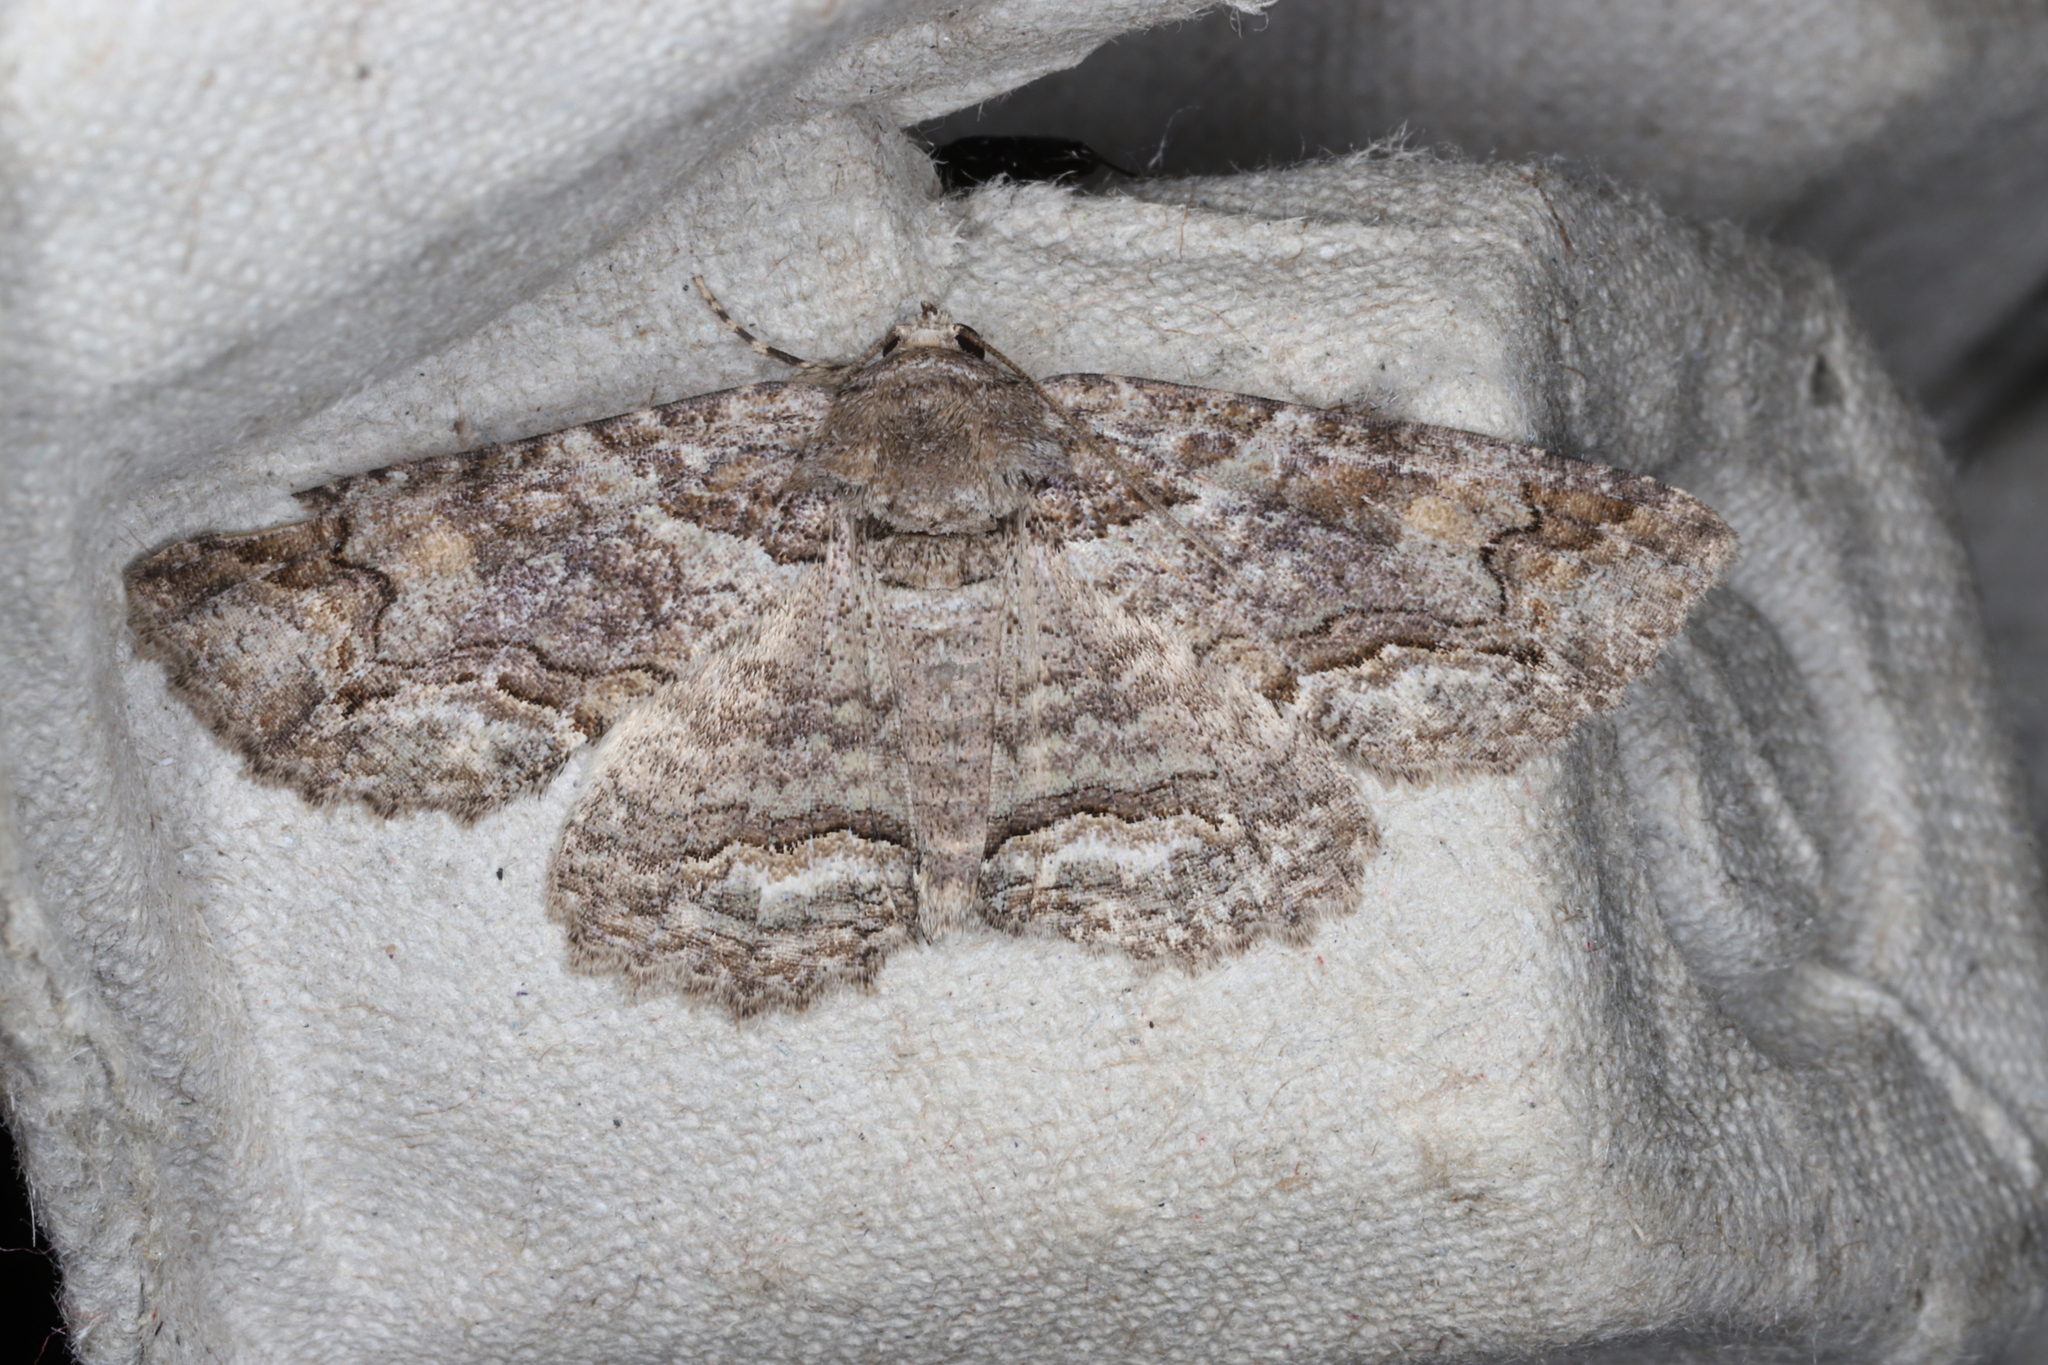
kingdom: Animalia
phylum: Arthropoda
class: Insecta
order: Lepidoptera
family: Erebidae
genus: Zale
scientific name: Zale galbanata
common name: Maple zale
